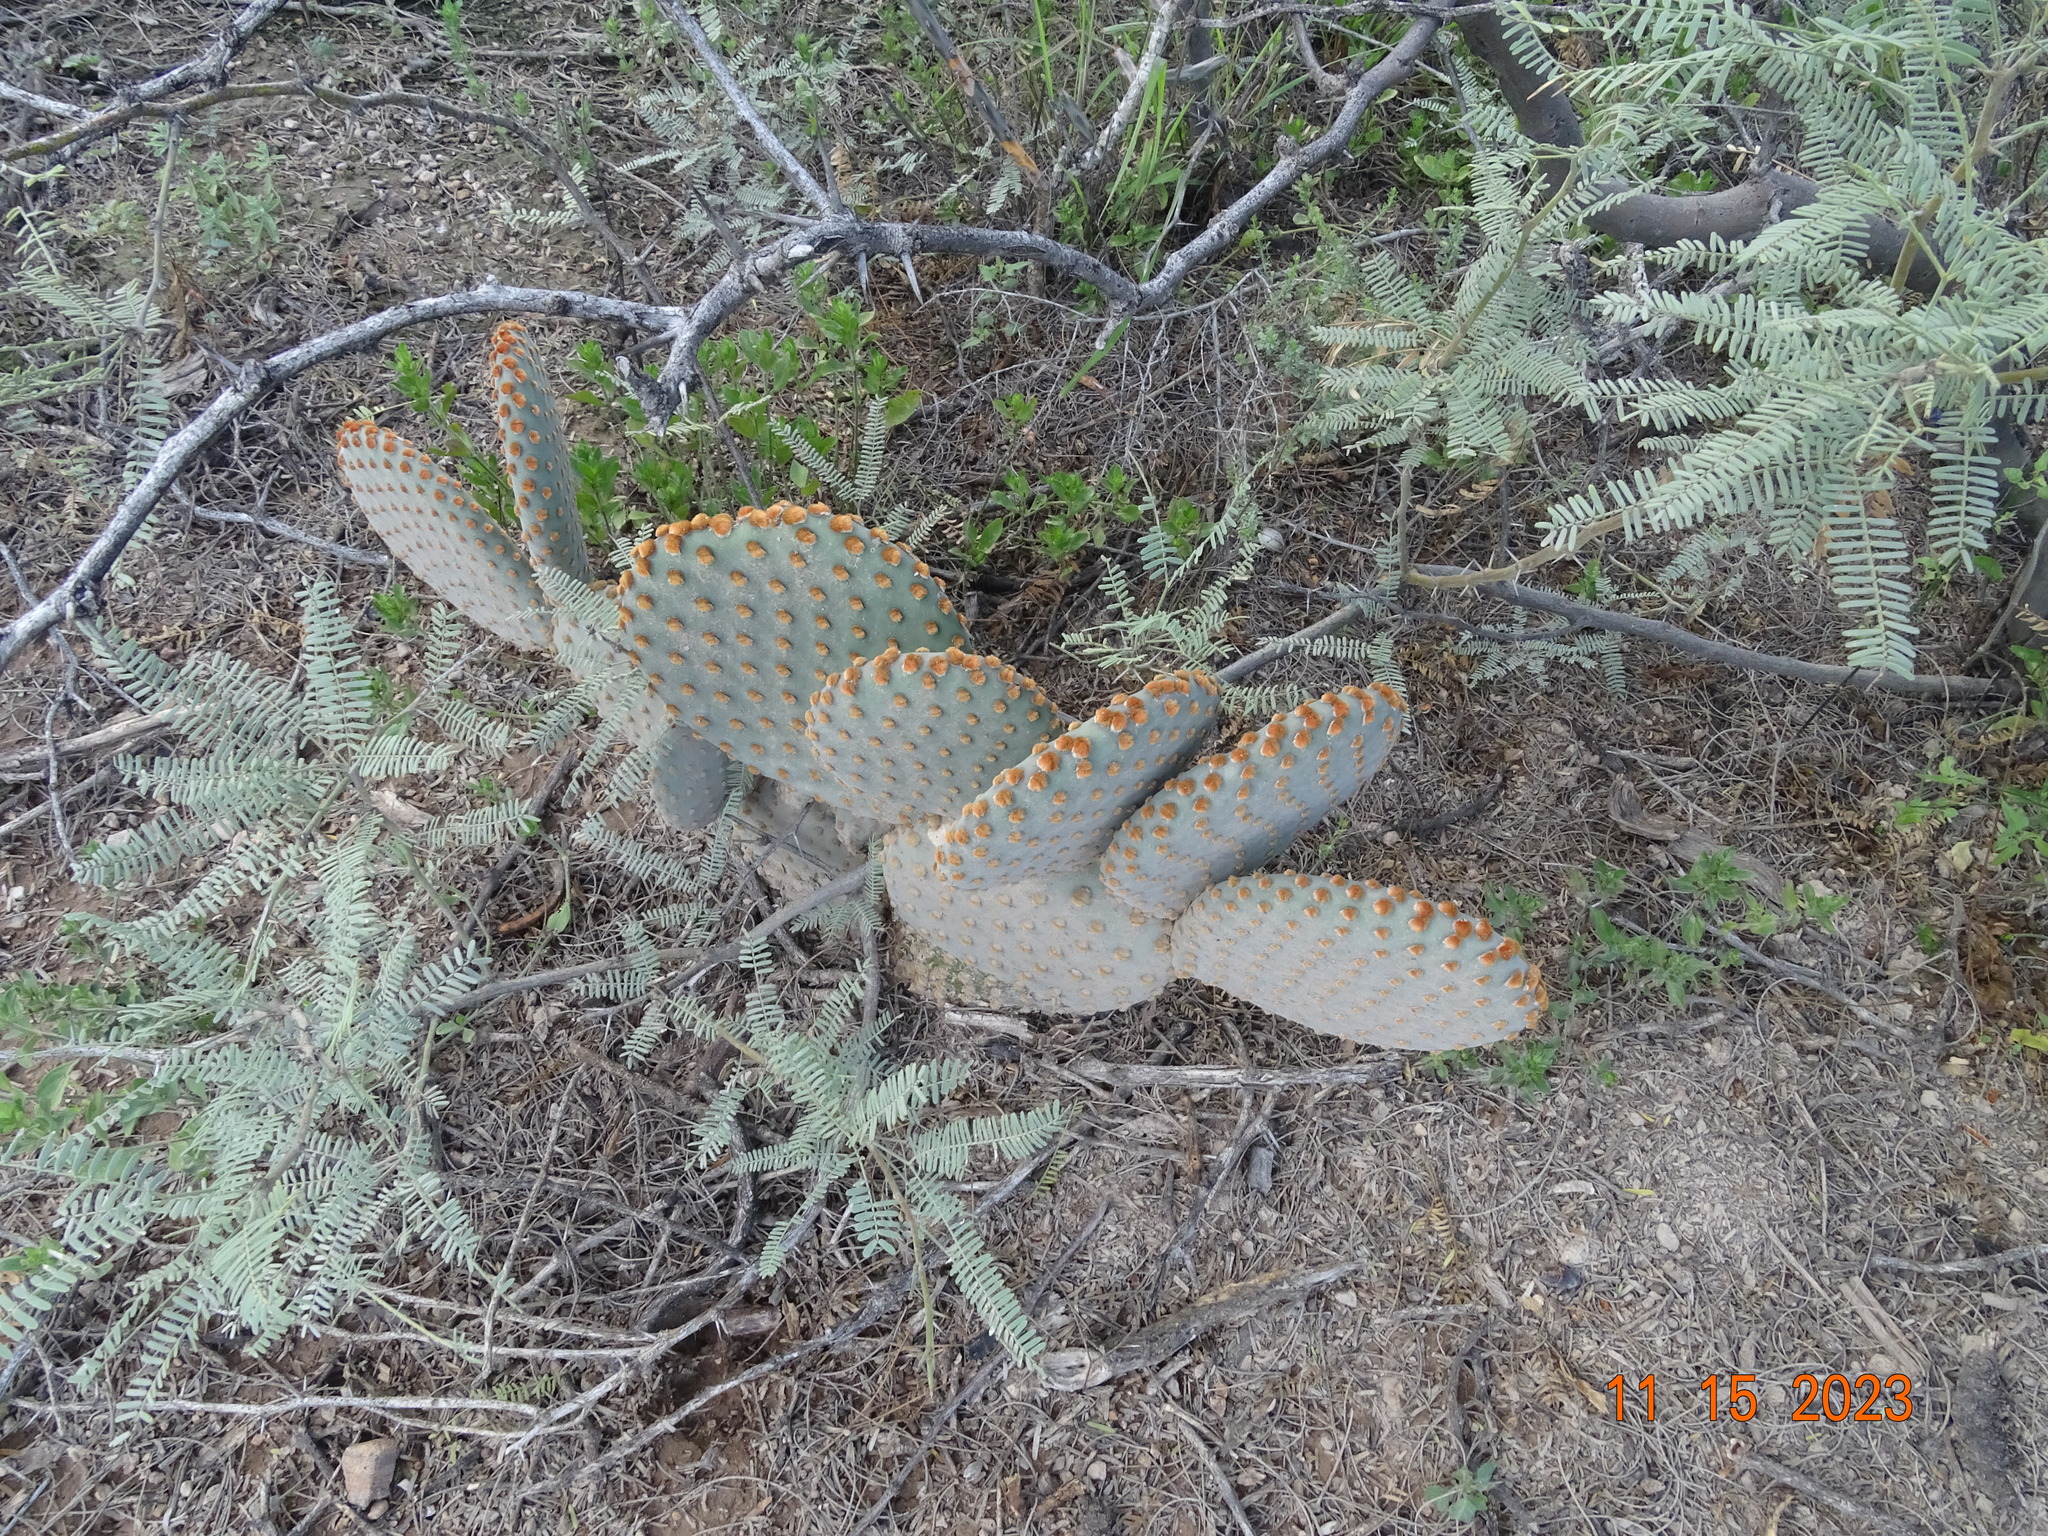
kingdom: Plantae
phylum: Tracheophyta
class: Magnoliopsida
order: Caryophyllales
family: Cactaceae
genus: Opuntia
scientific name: Opuntia rufida
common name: Blind pricklypear
